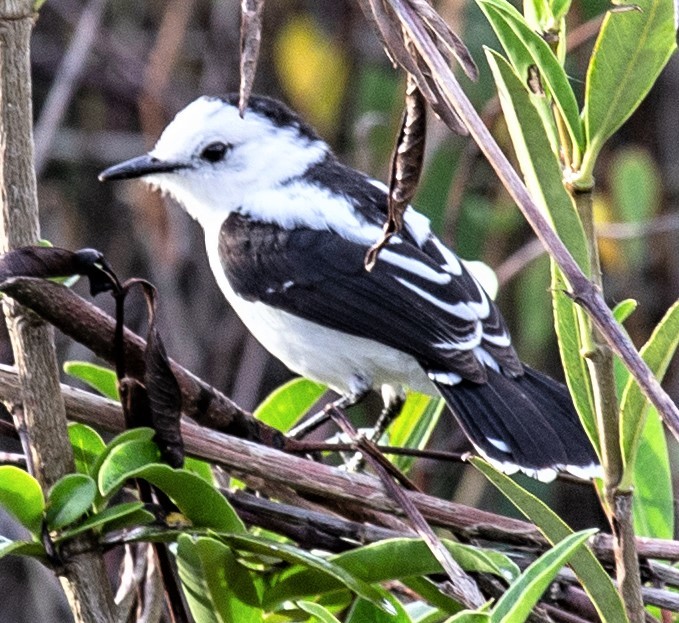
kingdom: Animalia
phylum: Chordata
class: Aves
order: Passeriformes
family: Tyrannidae
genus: Fluvicola
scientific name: Fluvicola pica
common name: Pied water-tyrant
